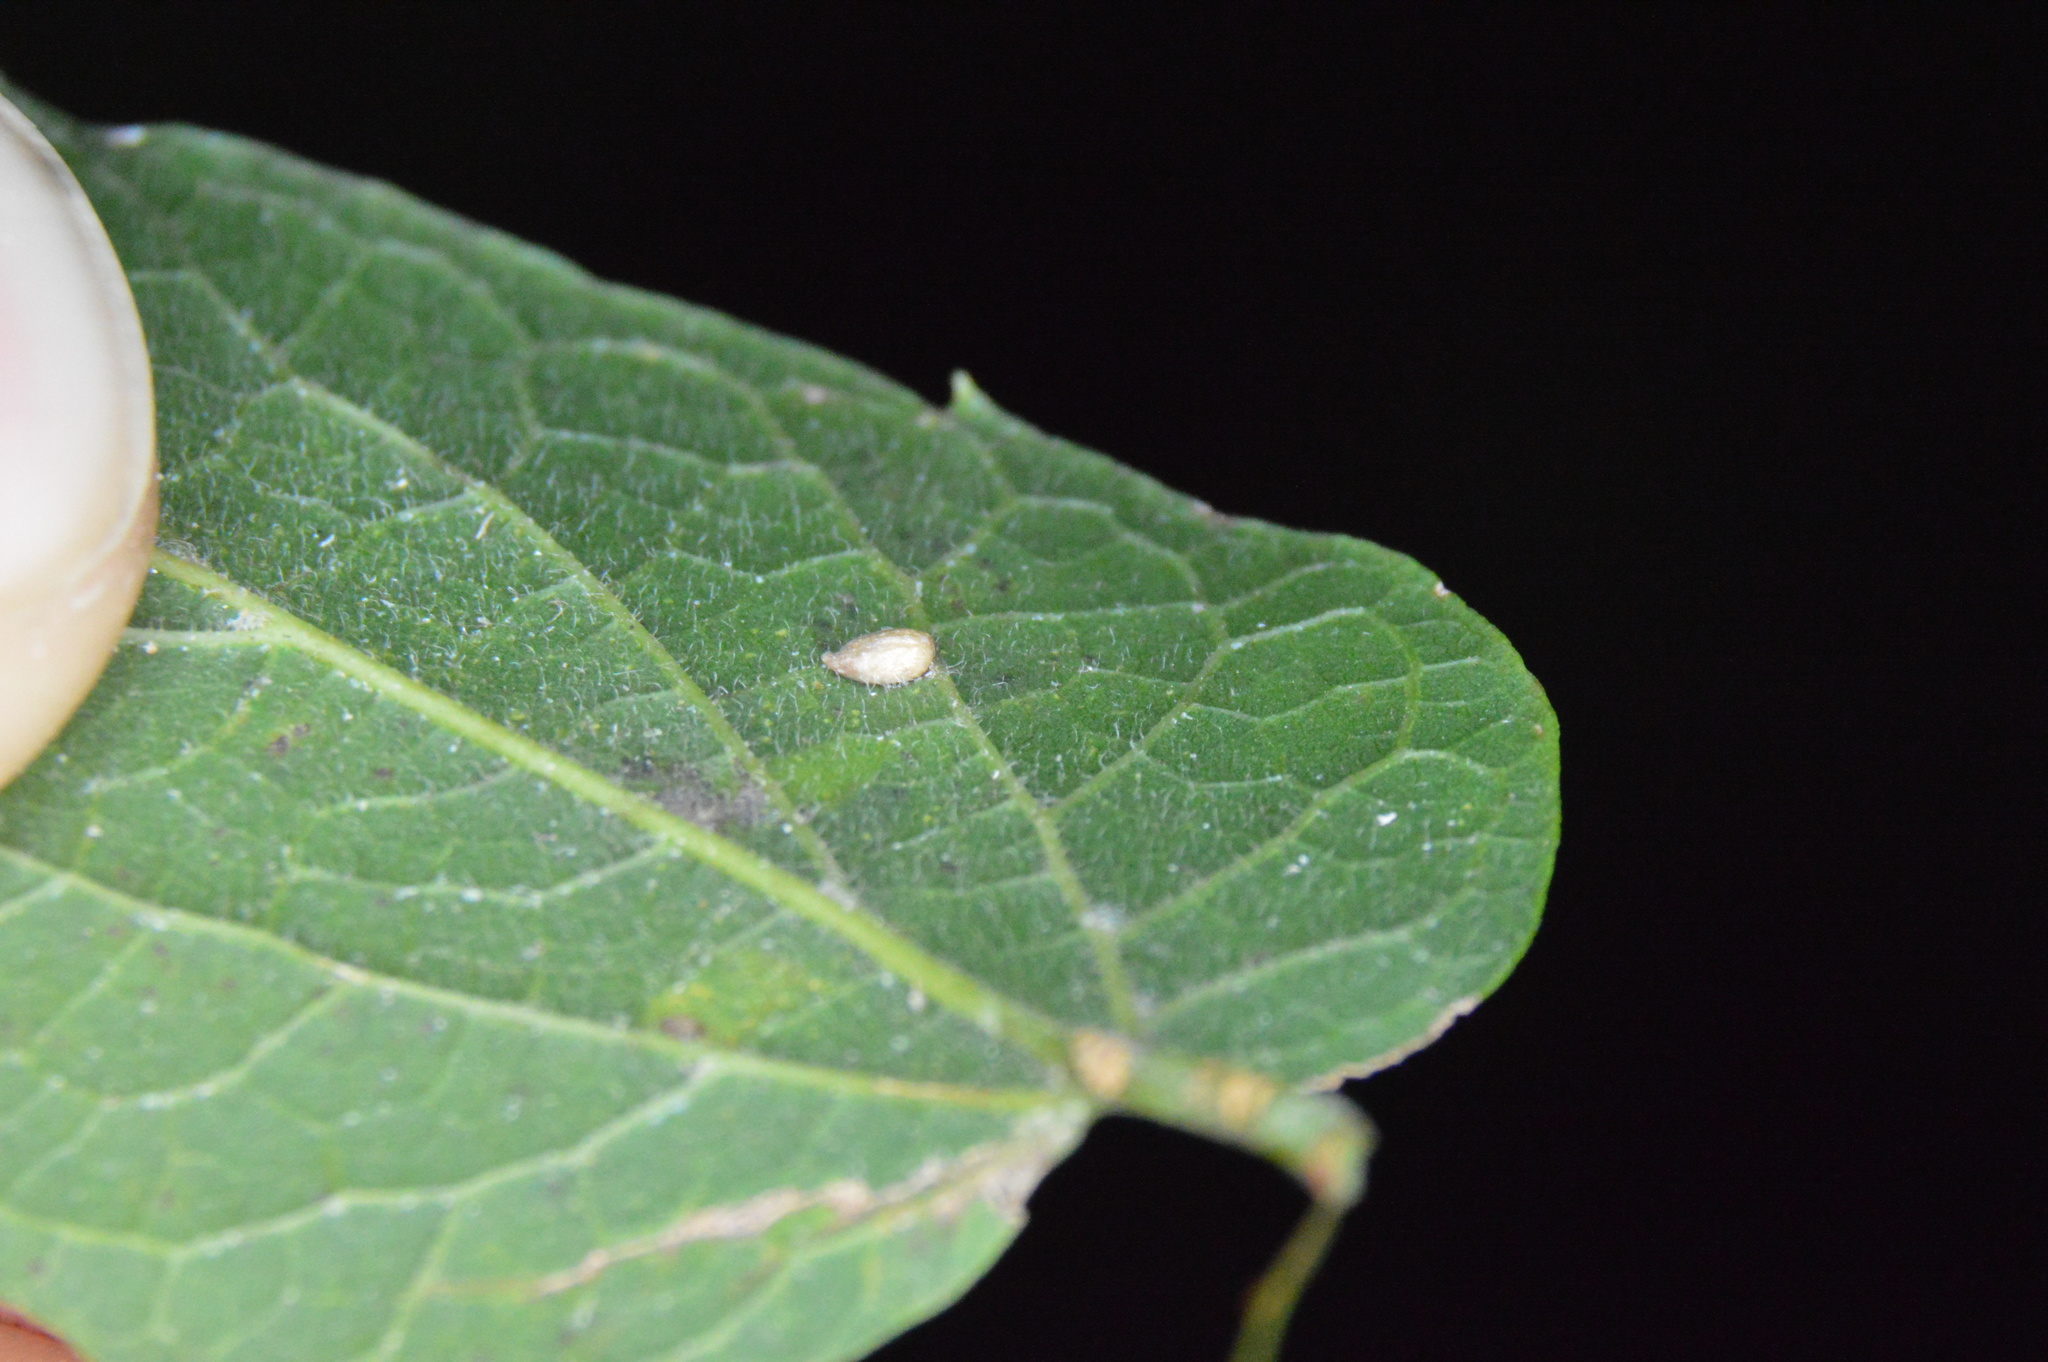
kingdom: Animalia
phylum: Arthropoda
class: Insecta
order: Diptera
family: Cecidomyiidae
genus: Celticecis
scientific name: Celticecis supina
